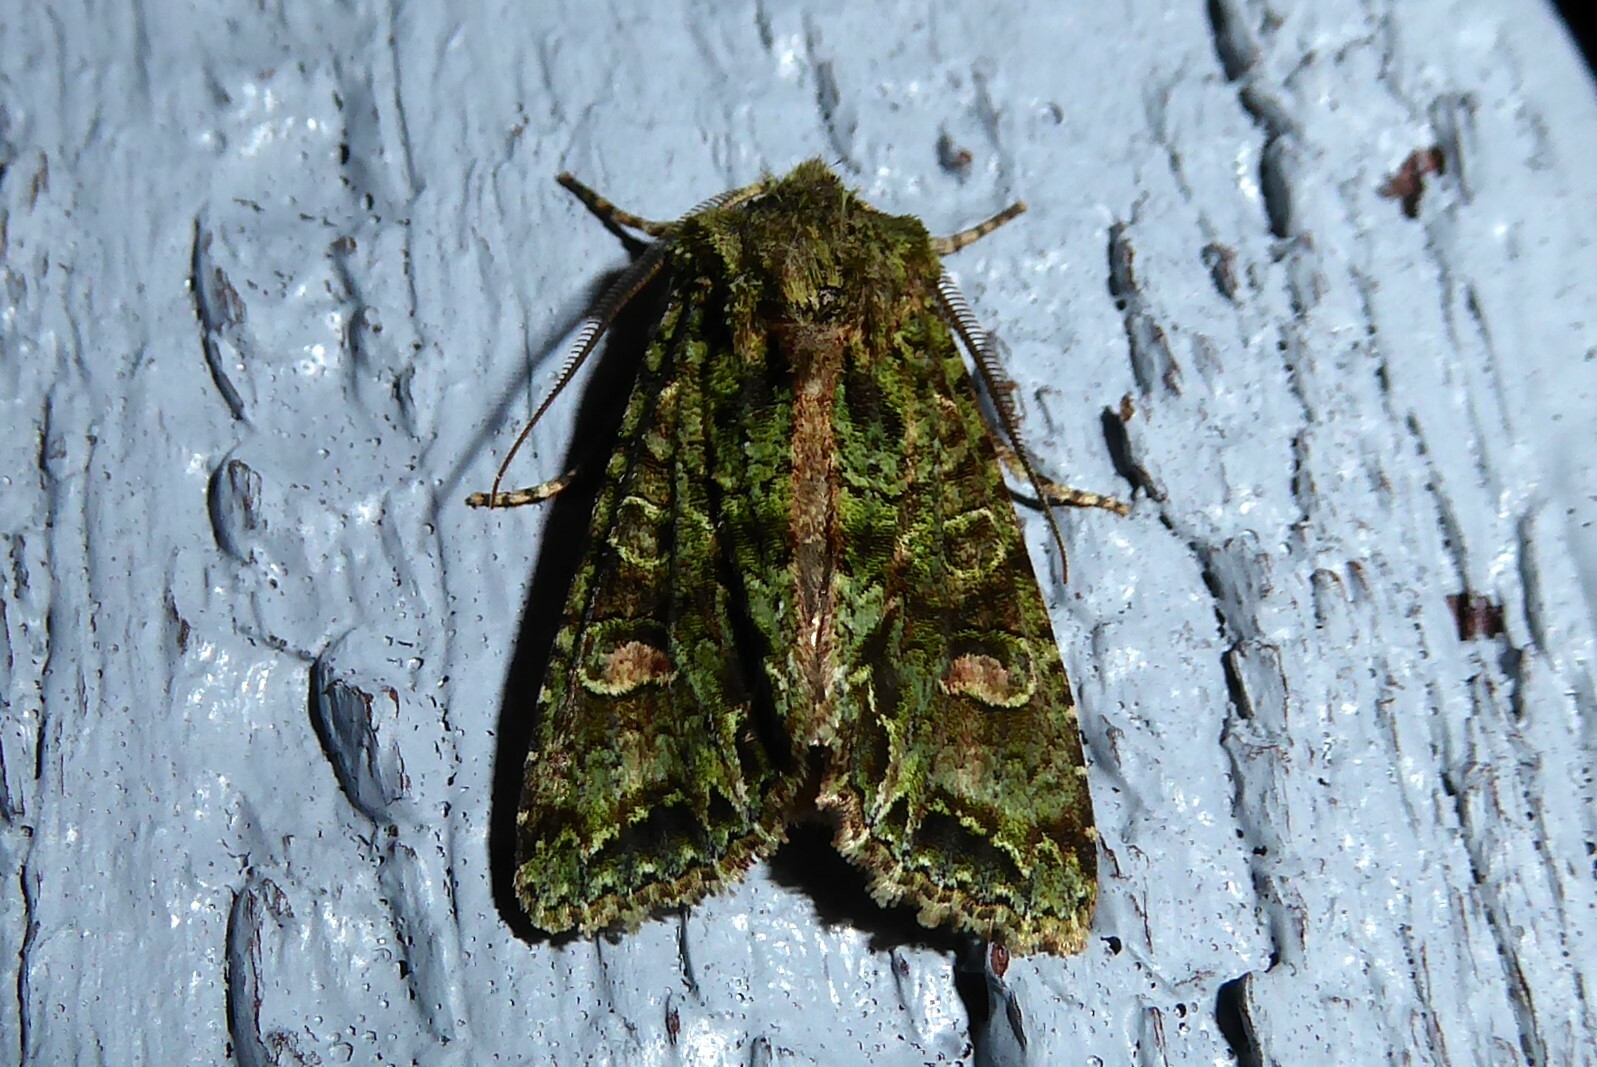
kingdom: Animalia
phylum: Arthropoda
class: Insecta
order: Lepidoptera
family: Noctuidae
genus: Ichneutica
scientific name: Ichneutica
